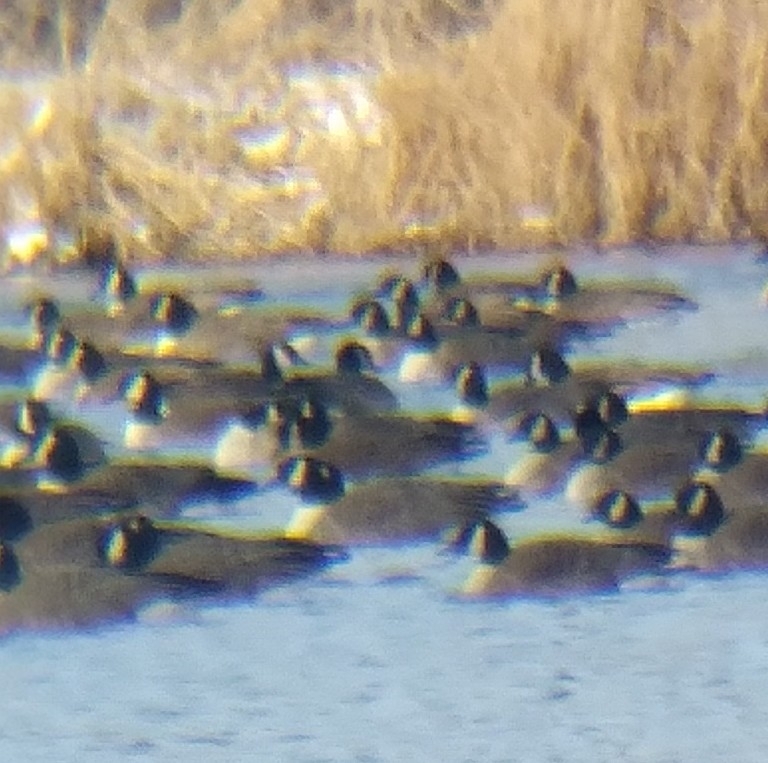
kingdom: Animalia
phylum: Chordata
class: Aves
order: Anseriformes
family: Anatidae
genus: Branta
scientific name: Branta canadensis
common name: Canada goose
